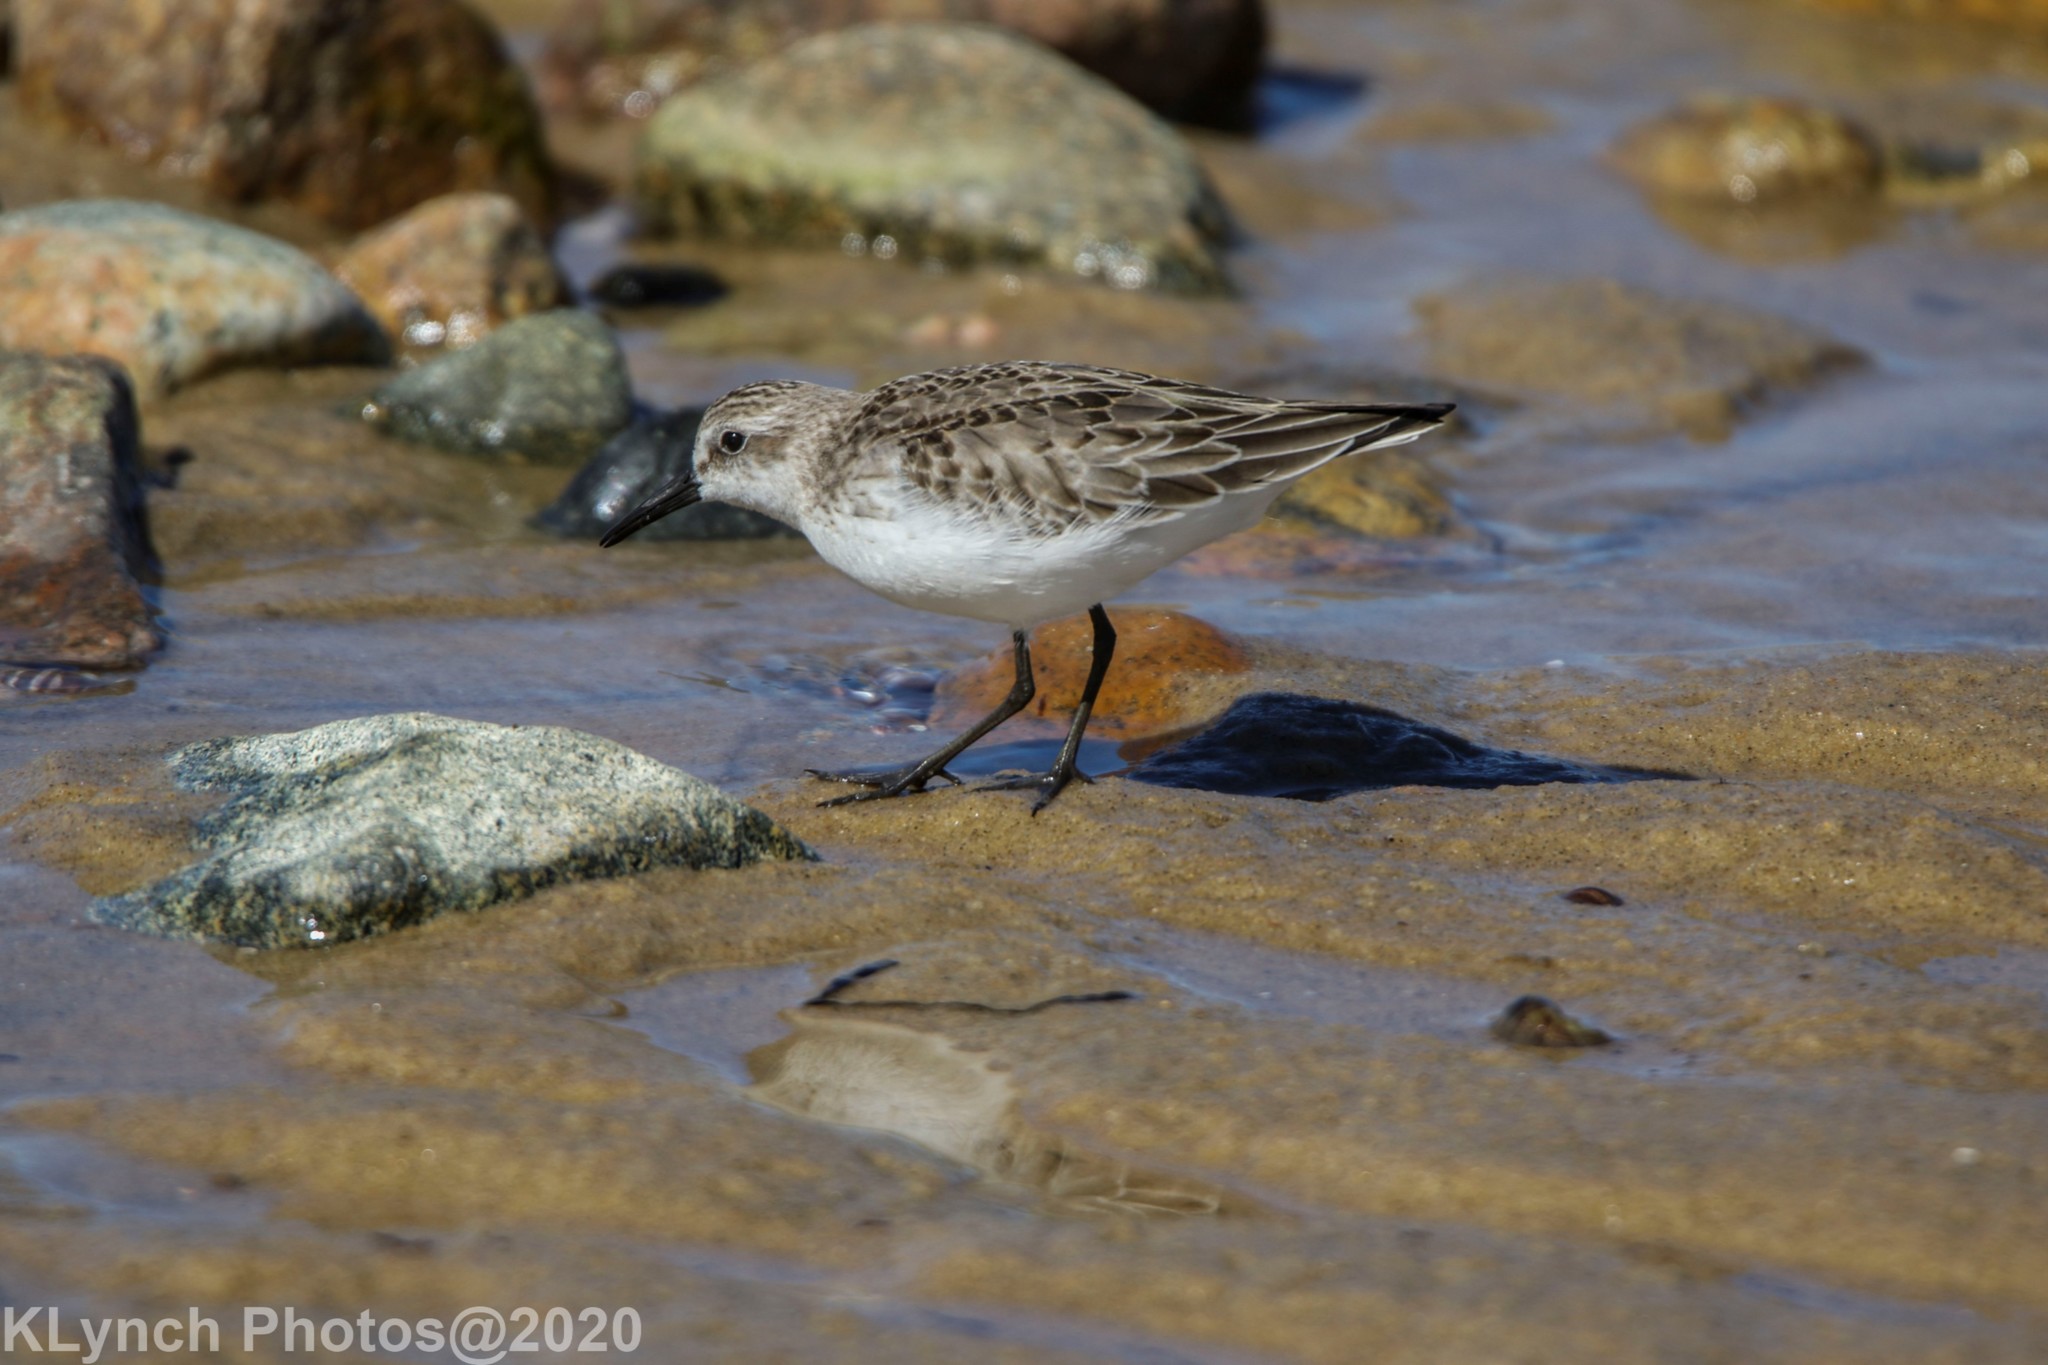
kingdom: Animalia
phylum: Chordata
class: Aves
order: Charadriiformes
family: Scolopacidae
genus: Calidris
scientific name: Calidris pusilla
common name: Semipalmated sandpiper
